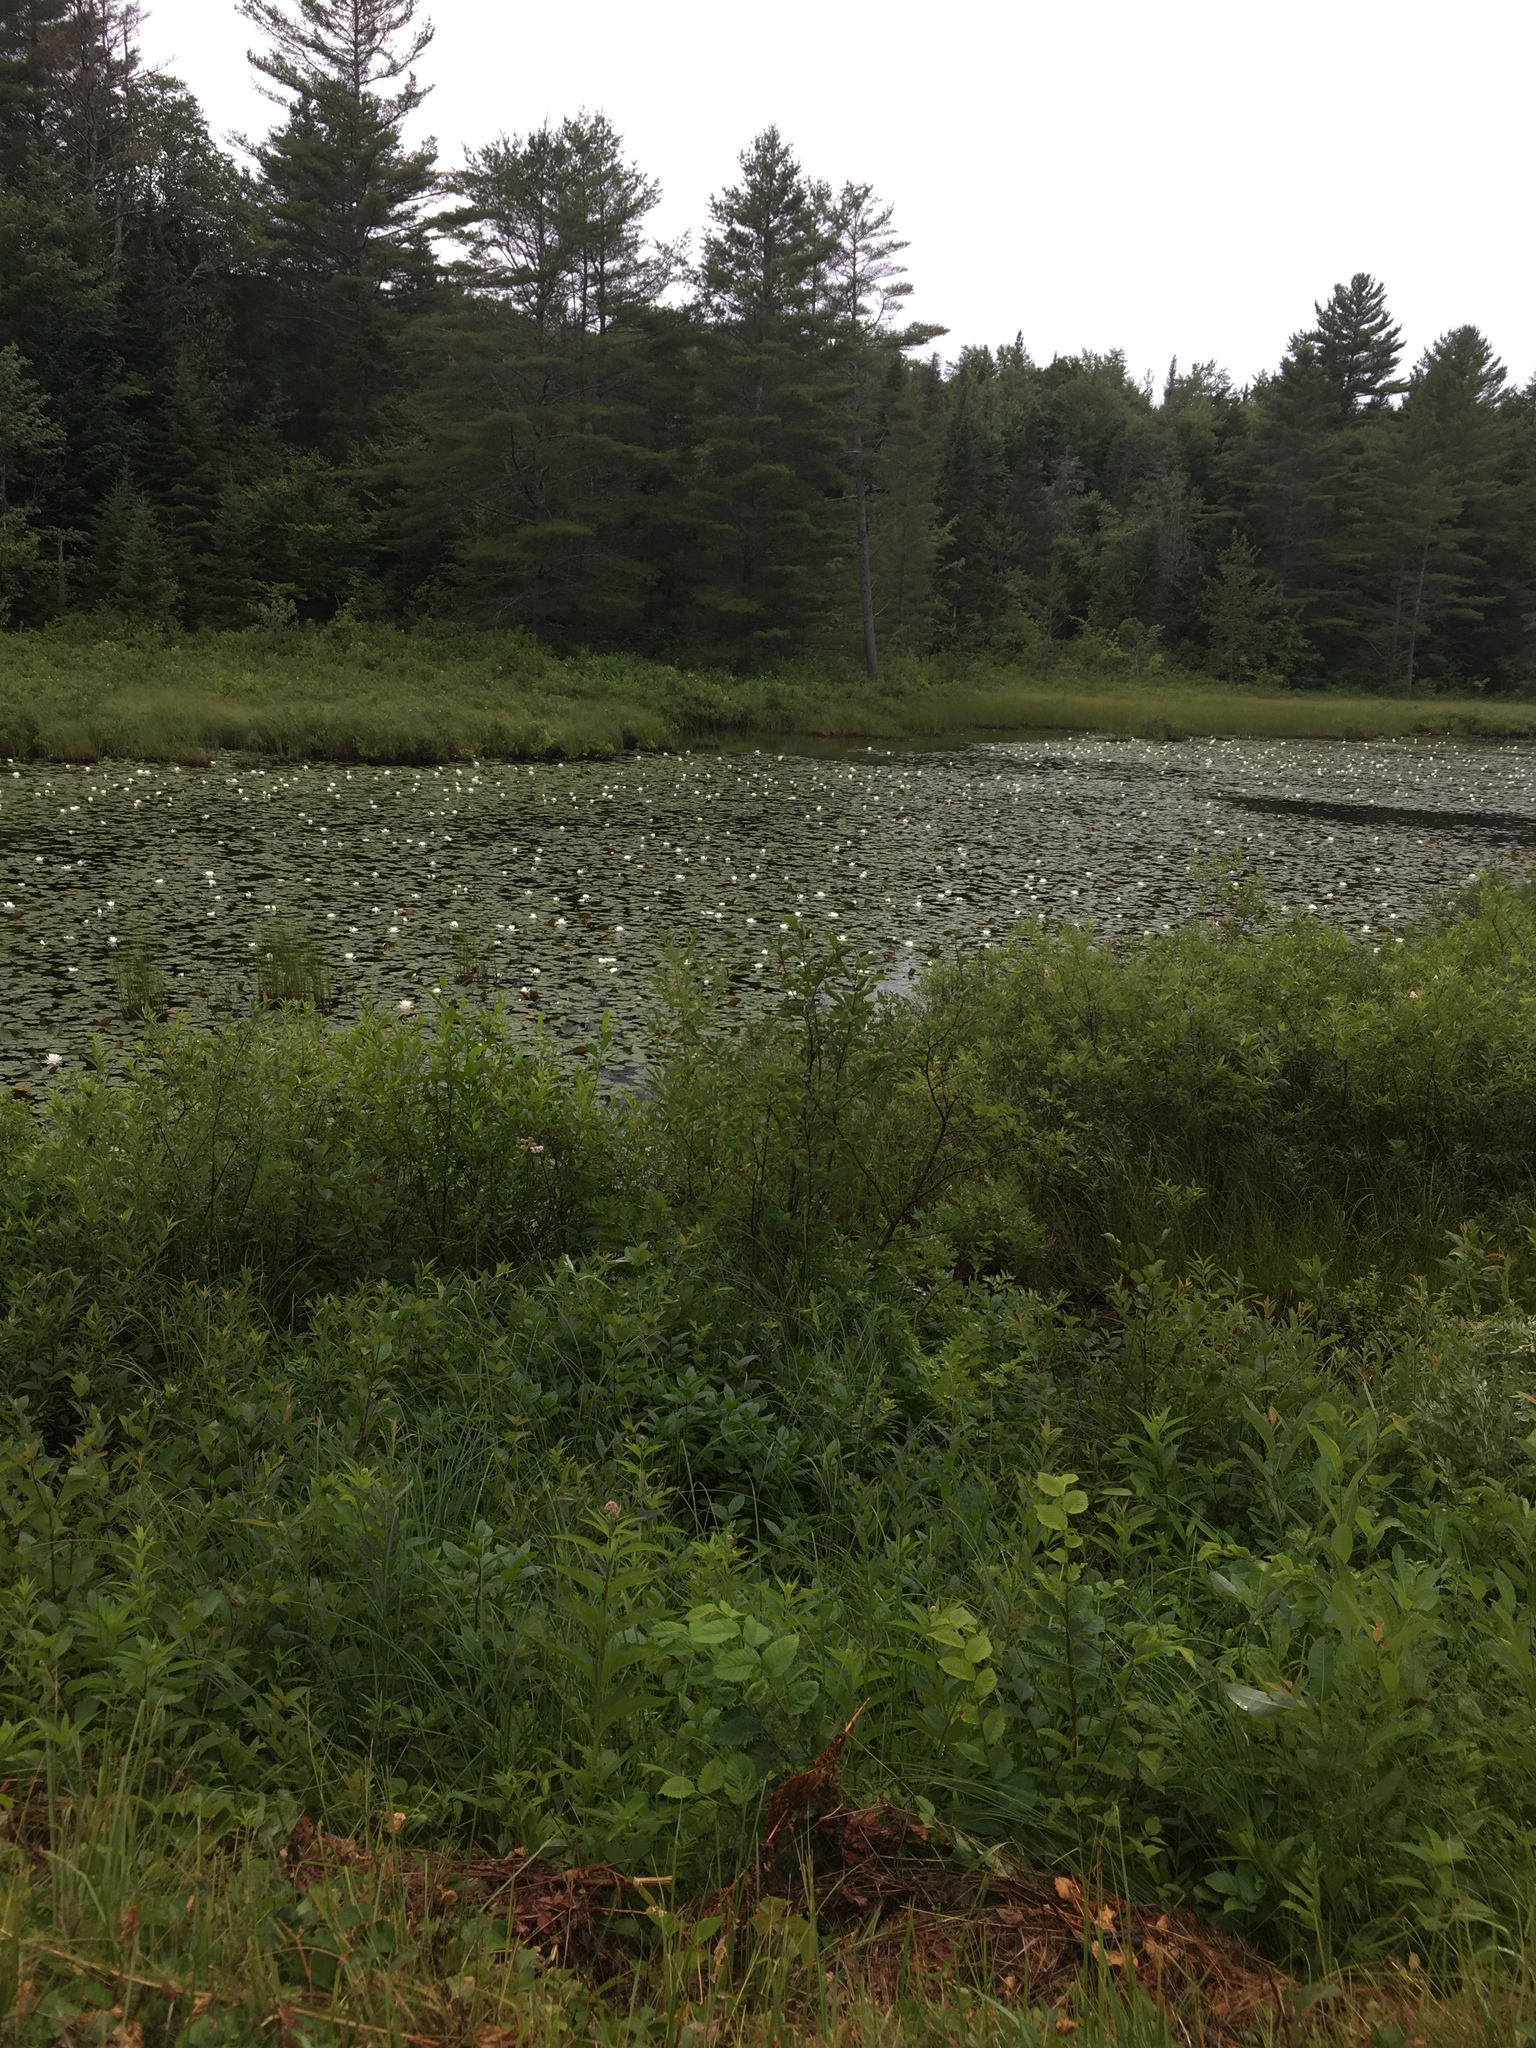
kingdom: Plantae
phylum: Tracheophyta
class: Magnoliopsida
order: Nymphaeales
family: Nymphaeaceae
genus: Nymphaea
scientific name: Nymphaea odorata
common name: Fragrant water-lily
